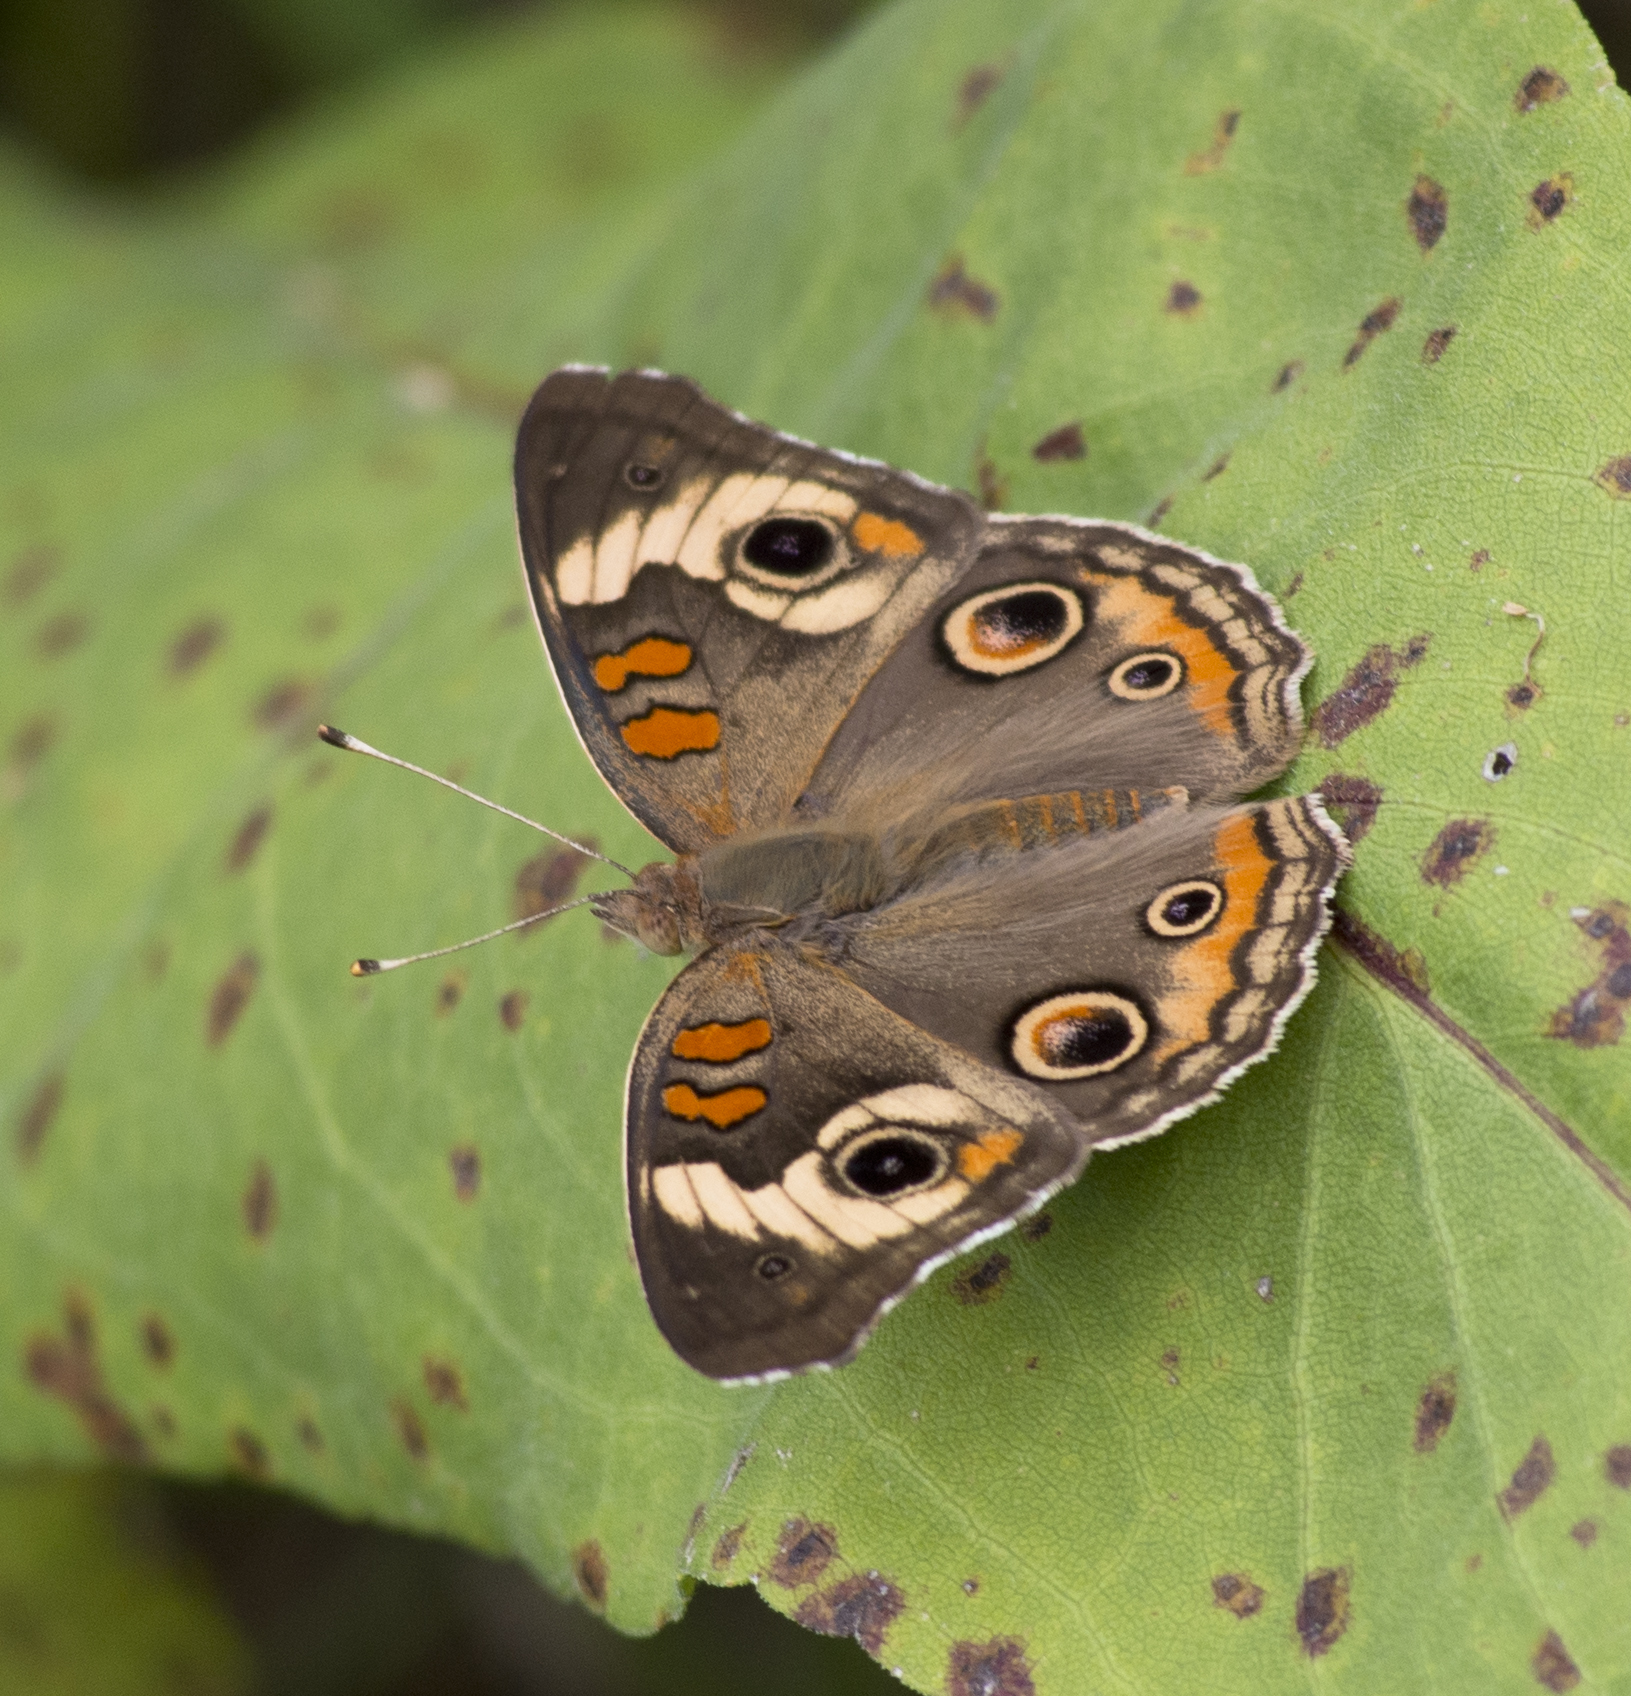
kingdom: Animalia
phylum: Arthropoda
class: Insecta
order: Lepidoptera
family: Nymphalidae
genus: Junonia
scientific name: Junonia coenia
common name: Common buckeye
